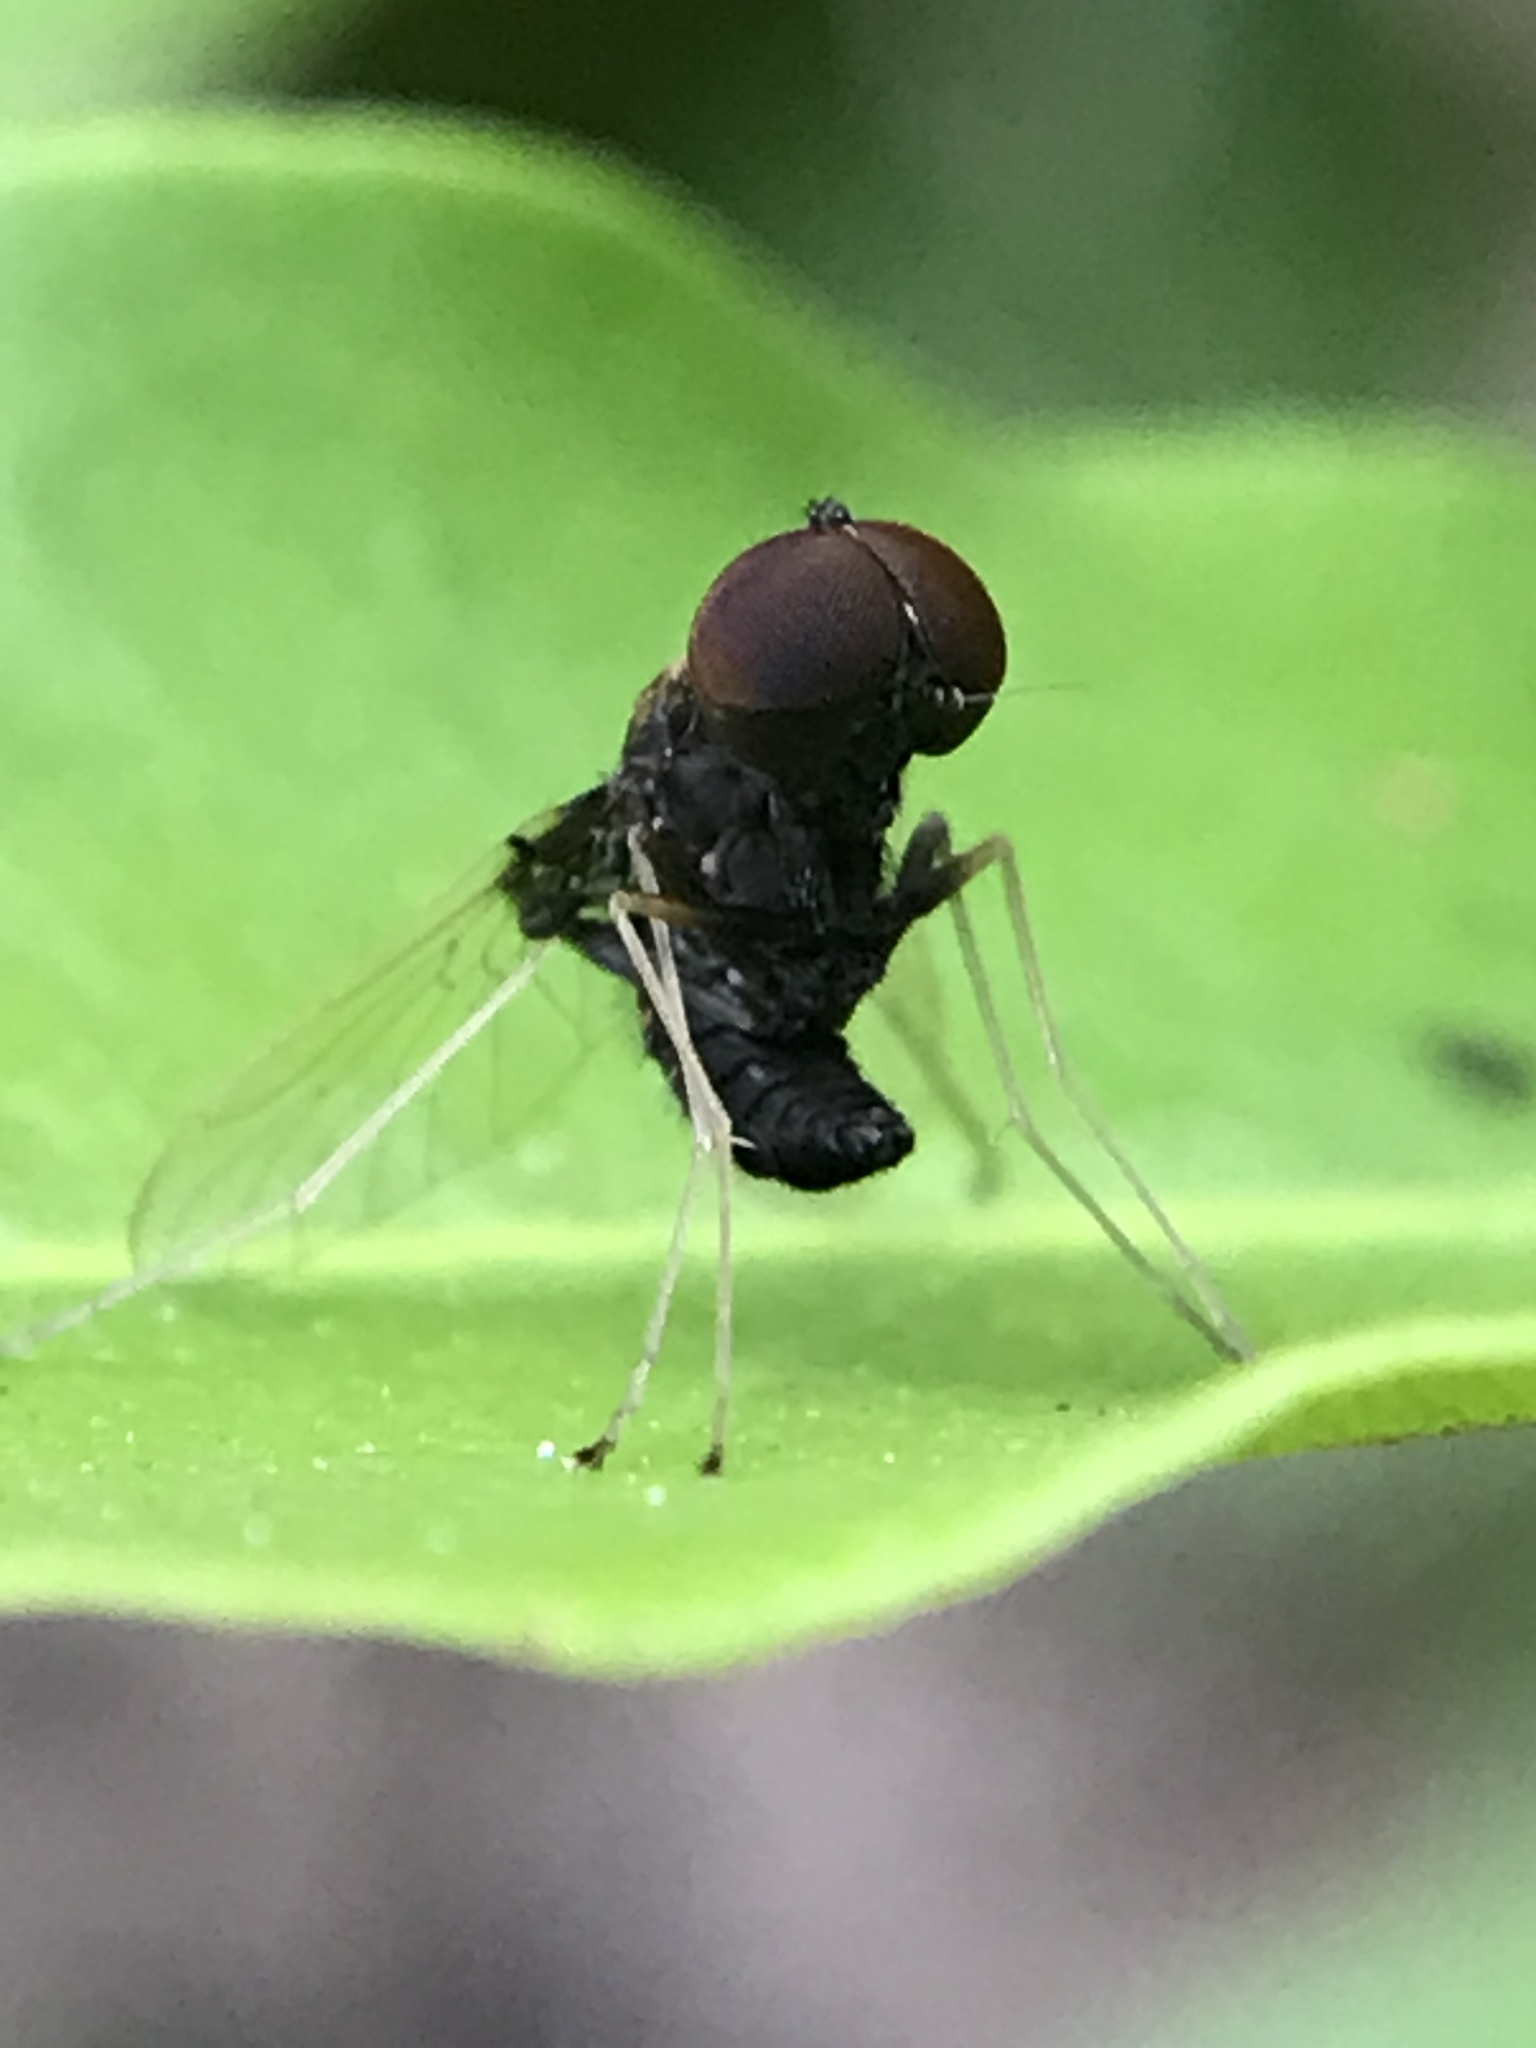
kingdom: Animalia
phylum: Arthropoda
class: Insecta
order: Diptera
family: Rhagionidae
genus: Chrysopilus
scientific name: Chrysopilus basilaris
